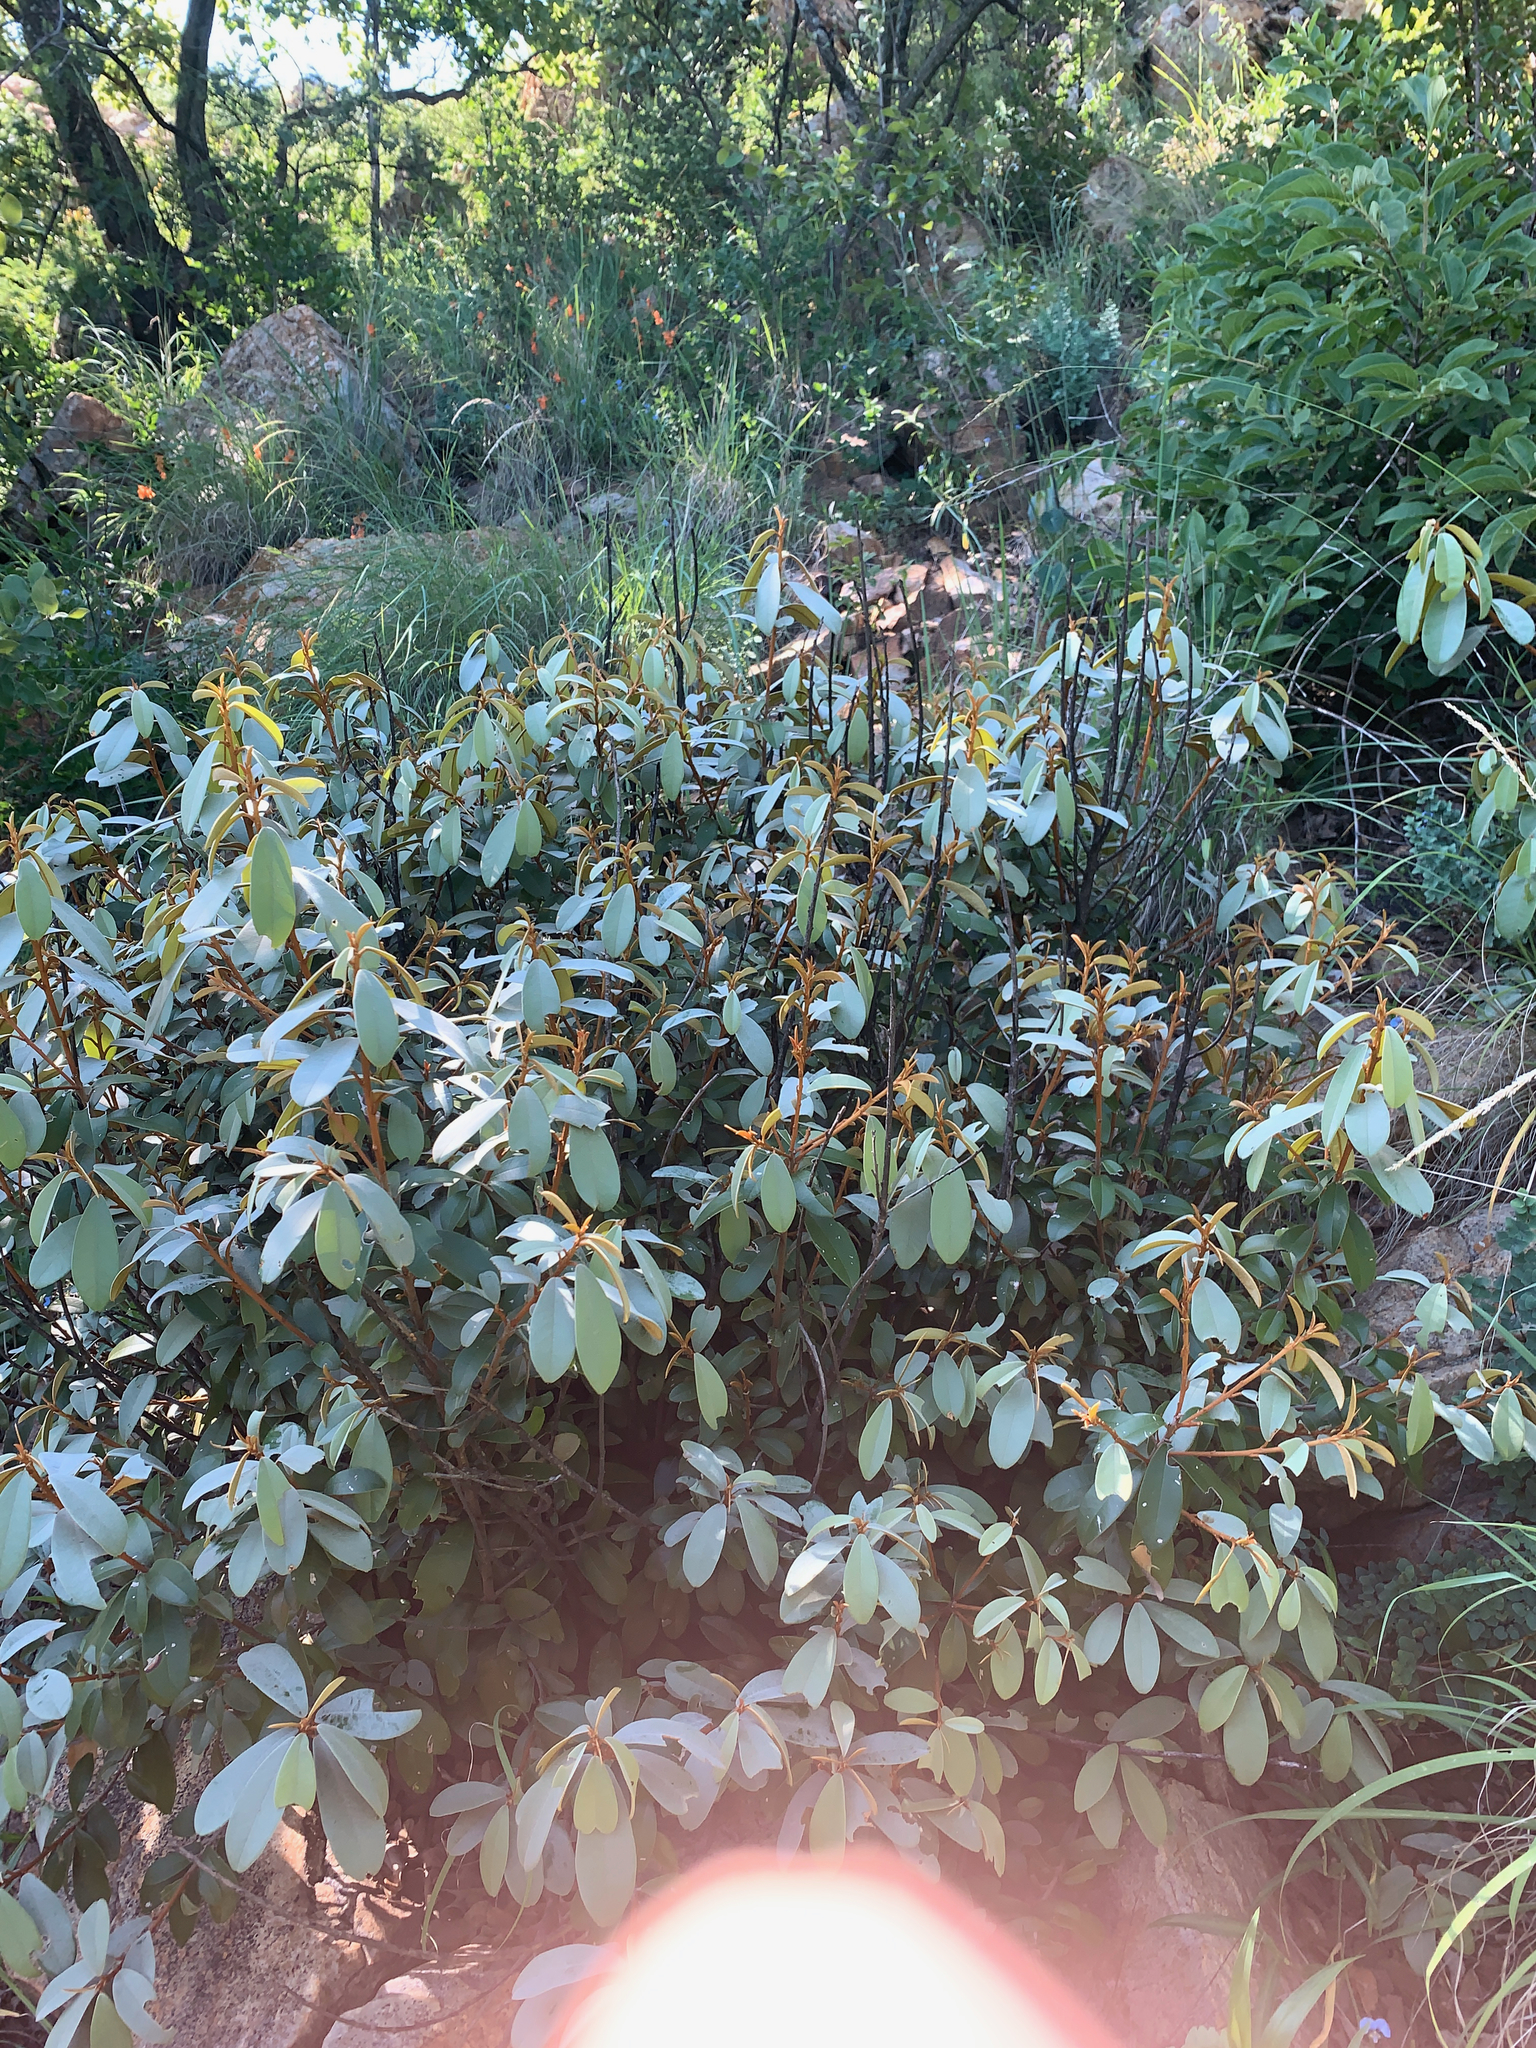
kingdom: Plantae
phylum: Tracheophyta
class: Magnoliopsida
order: Ericales
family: Sapotaceae
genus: Englerophytum
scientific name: Englerophytum magalismontanum
